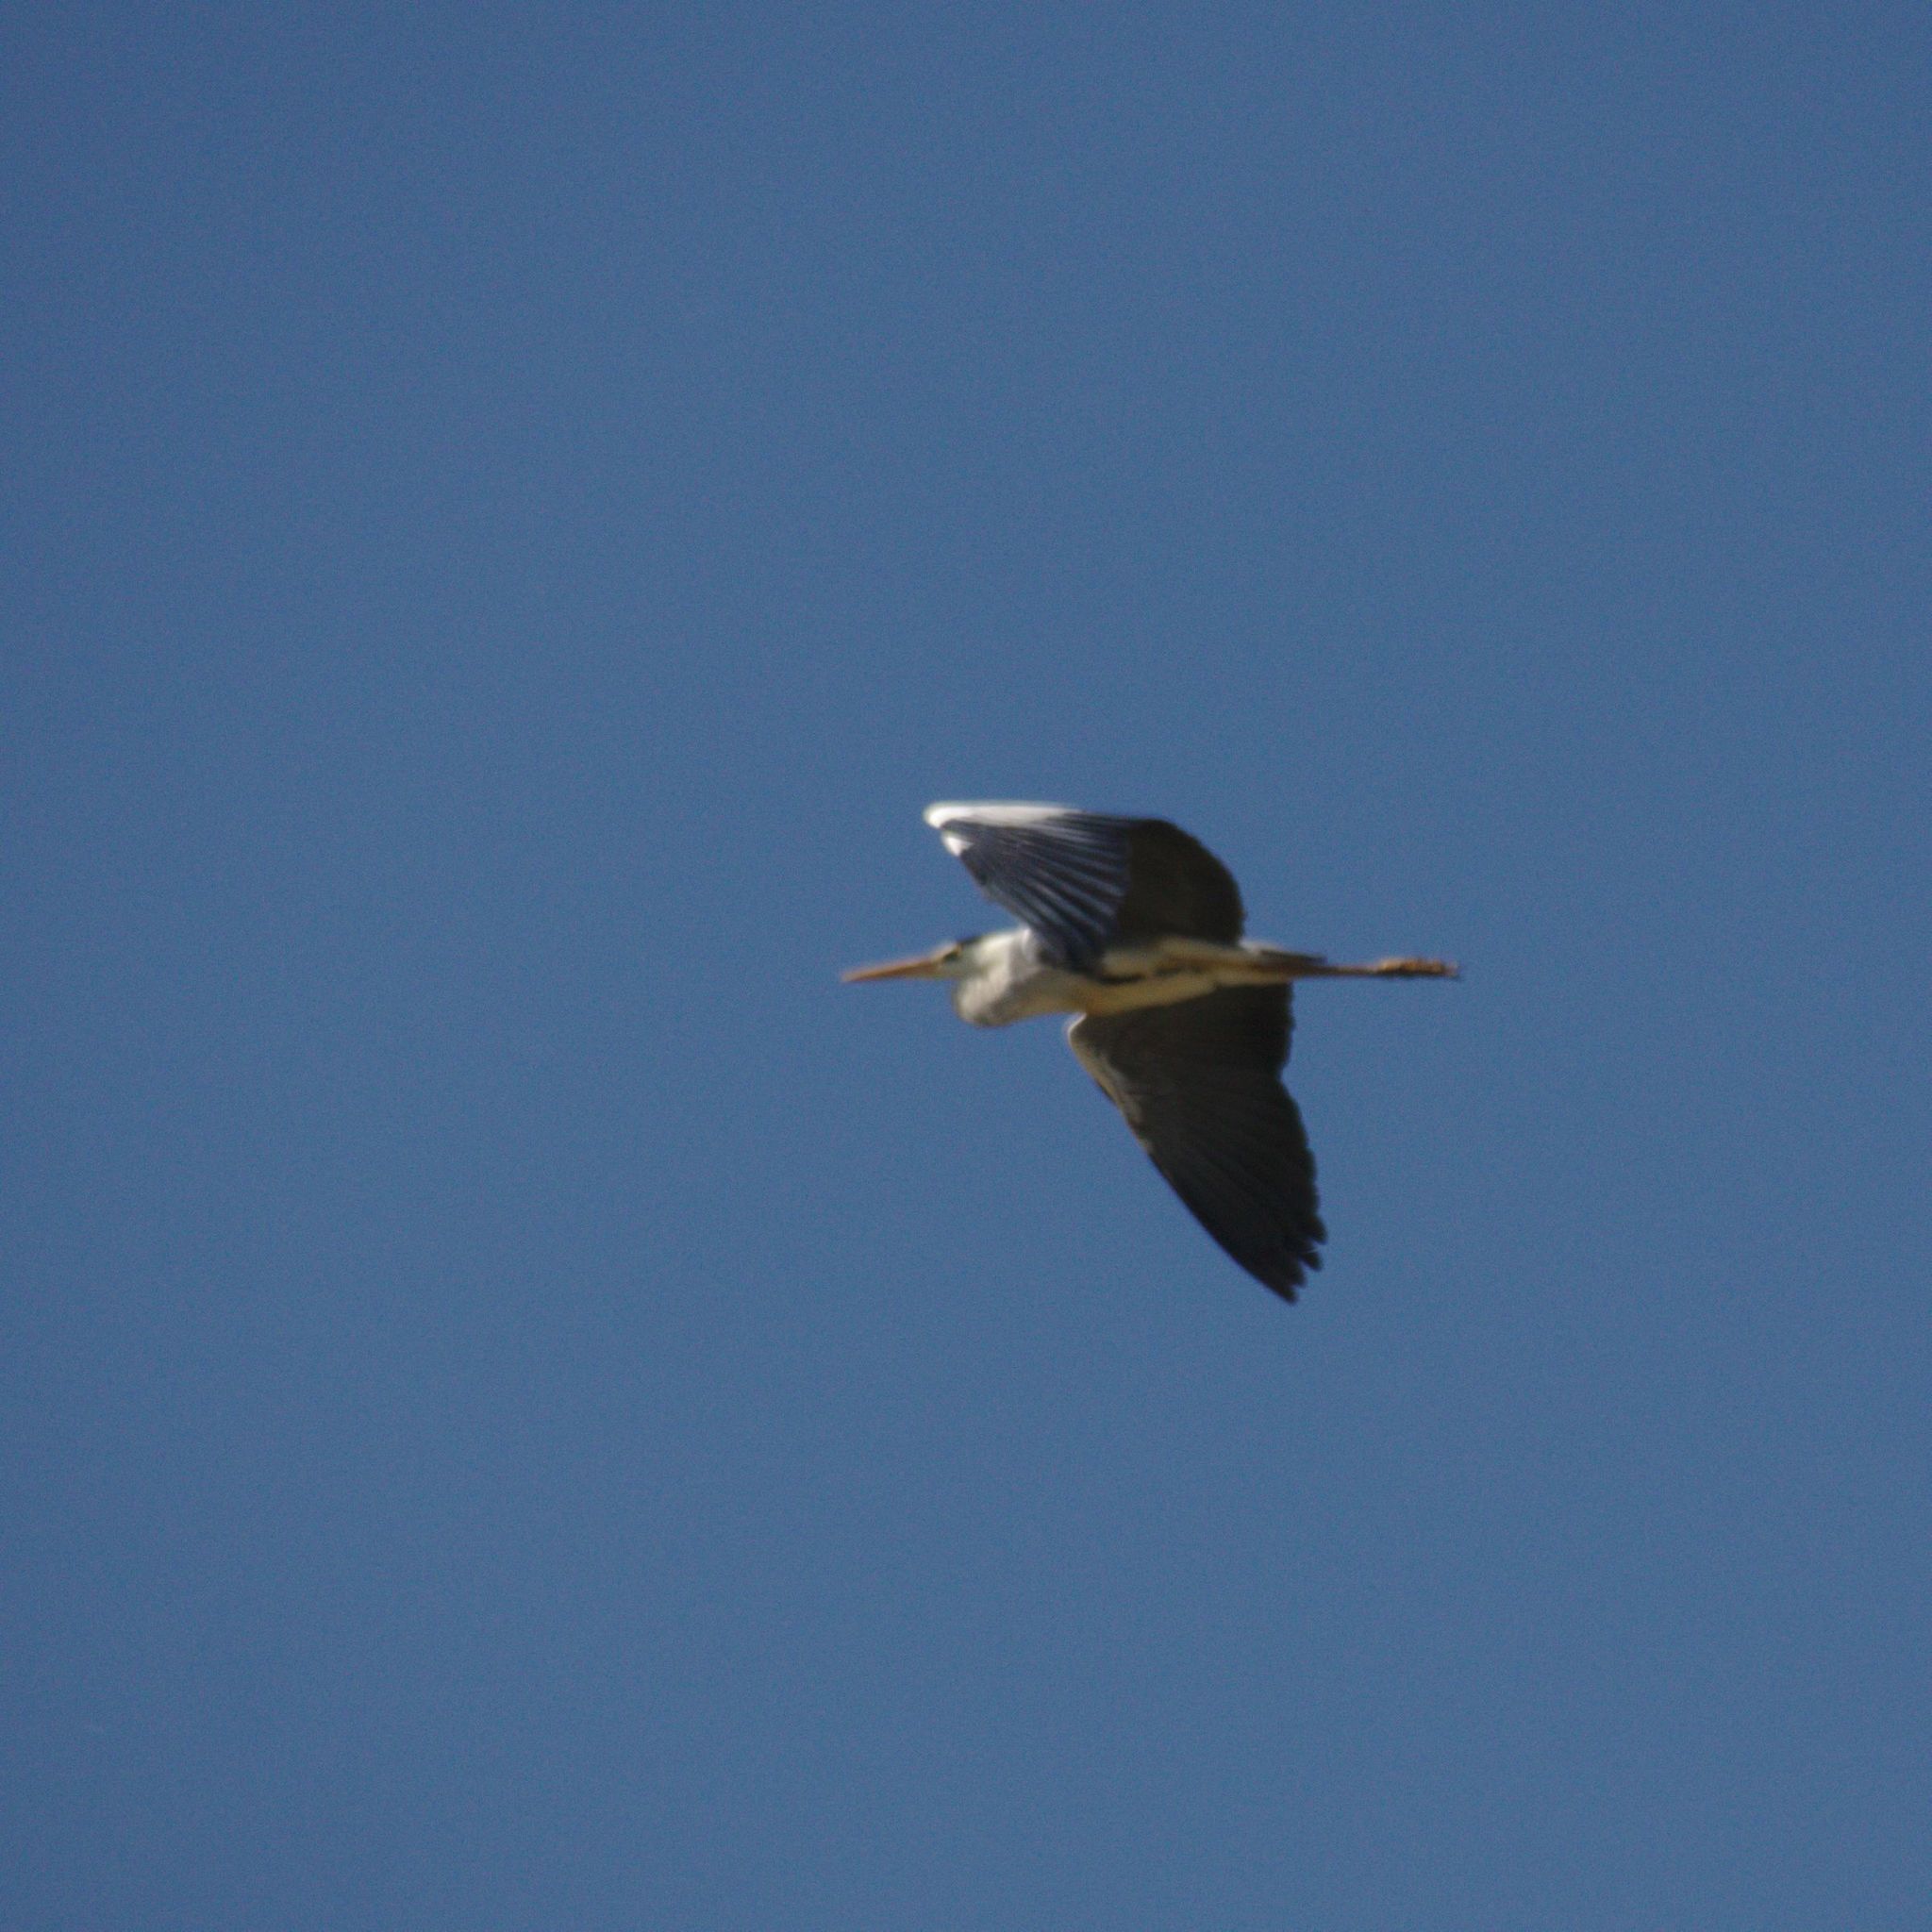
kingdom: Animalia
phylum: Chordata
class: Aves
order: Pelecaniformes
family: Ardeidae
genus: Ardea
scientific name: Ardea cinerea
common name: Grey heron
